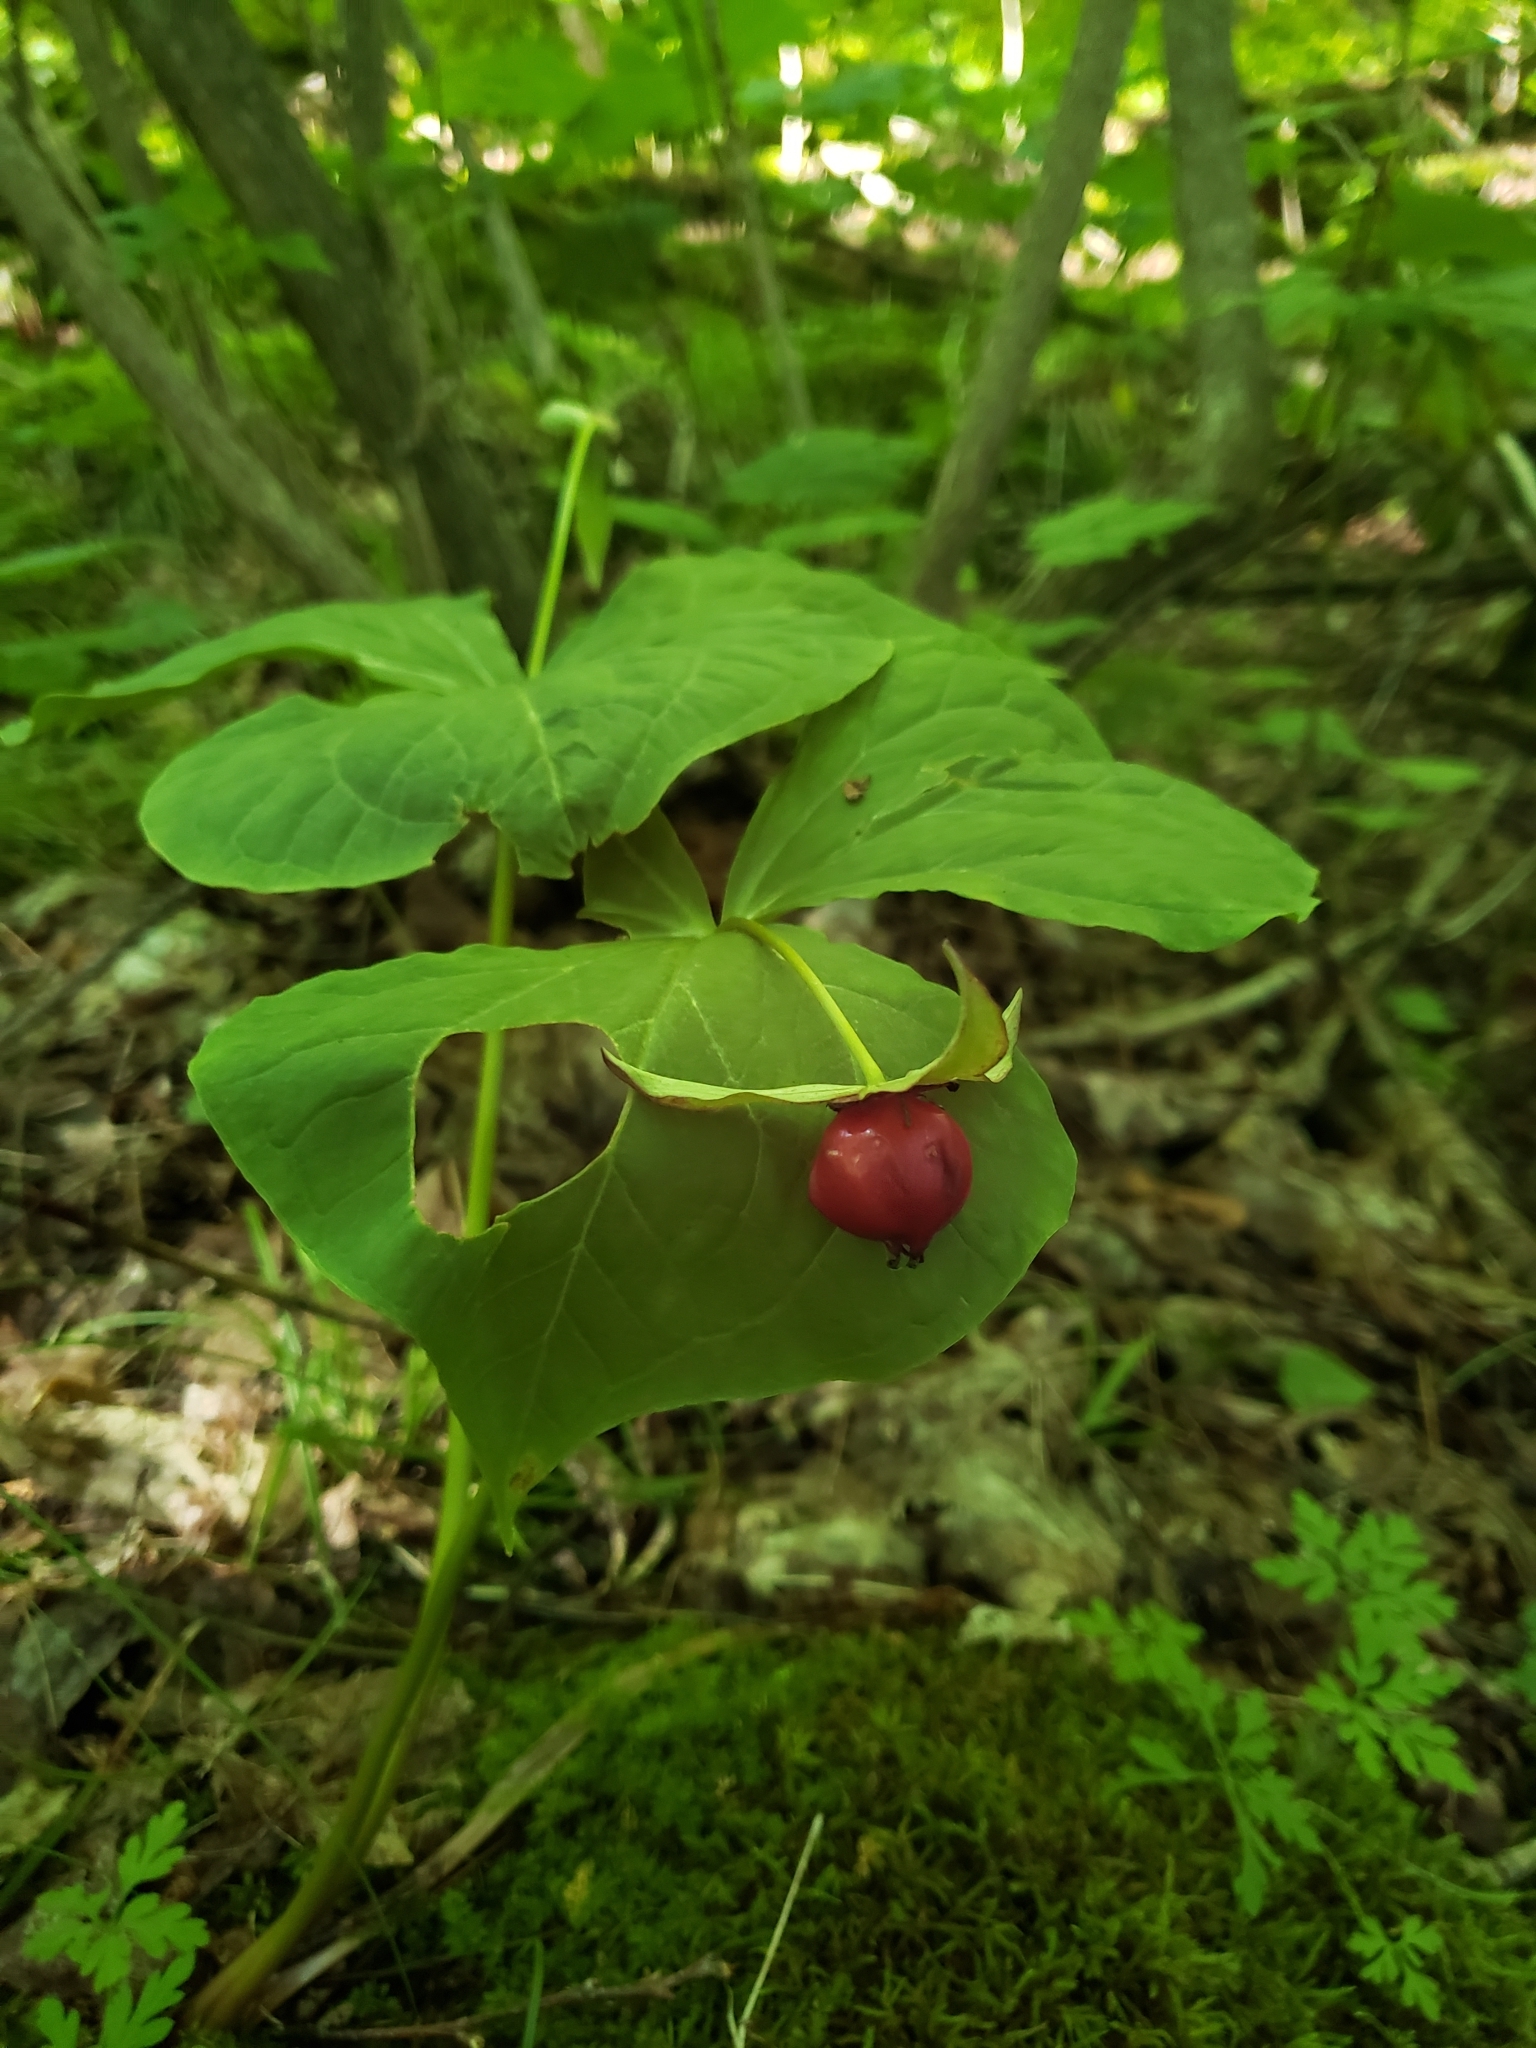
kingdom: Plantae
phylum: Tracheophyta
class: Liliopsida
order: Liliales
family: Melanthiaceae
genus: Trillium
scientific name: Trillium erectum
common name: Purple trillium
